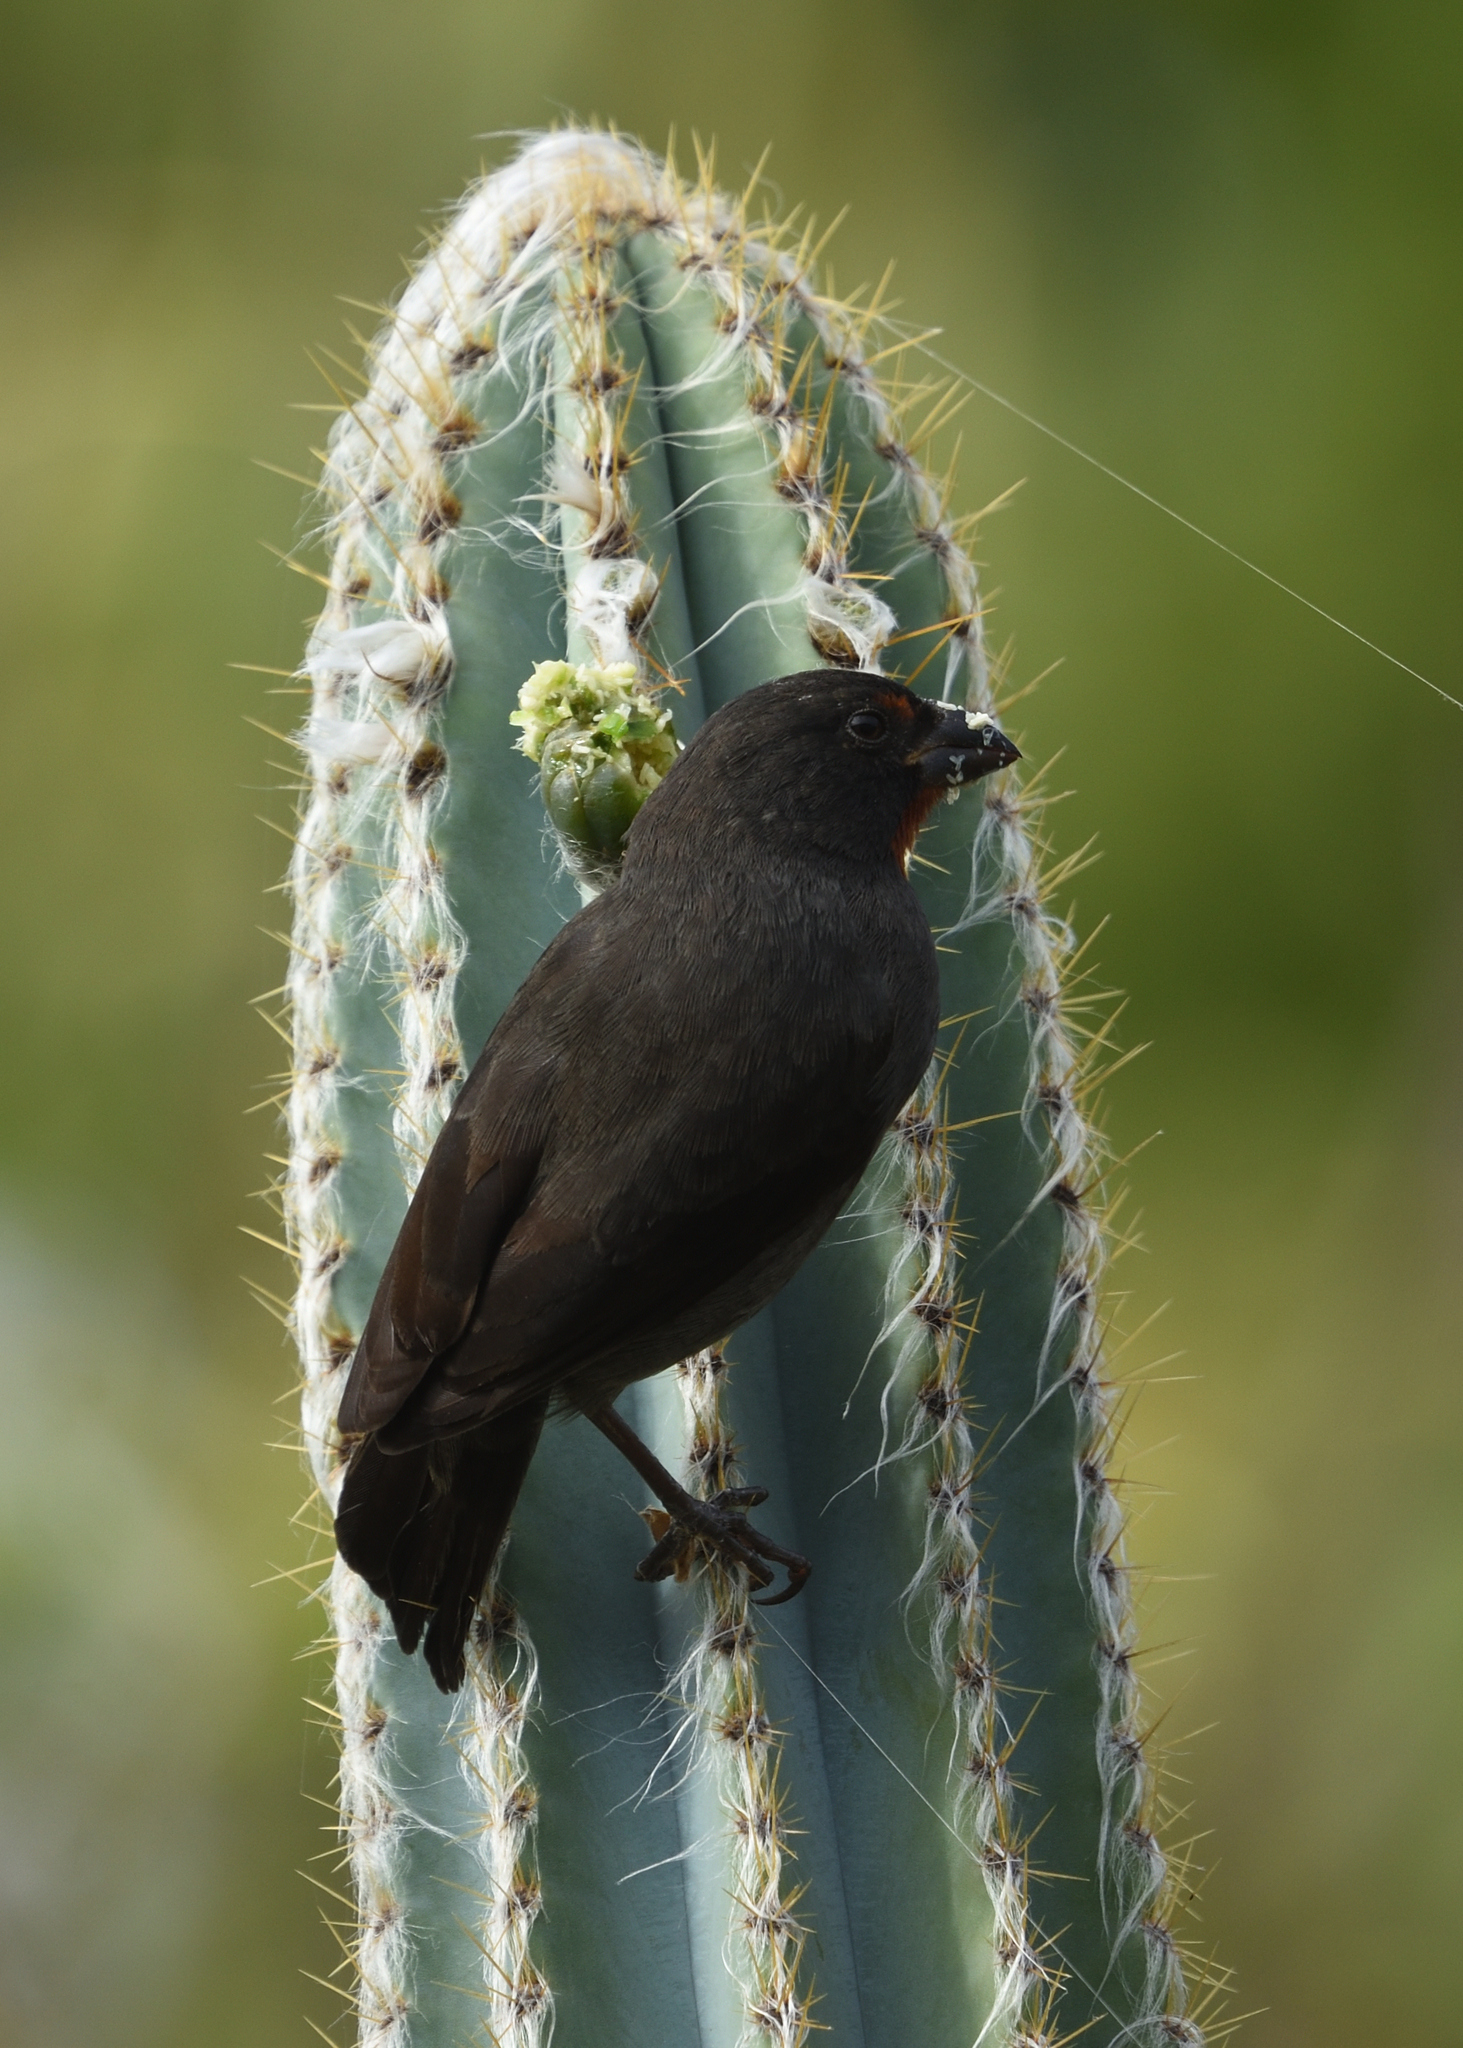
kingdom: Animalia
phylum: Chordata
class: Aves
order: Passeriformes
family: Thraupidae
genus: Loxigilla
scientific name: Loxigilla noctis
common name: Lesser antillean bullfinch
